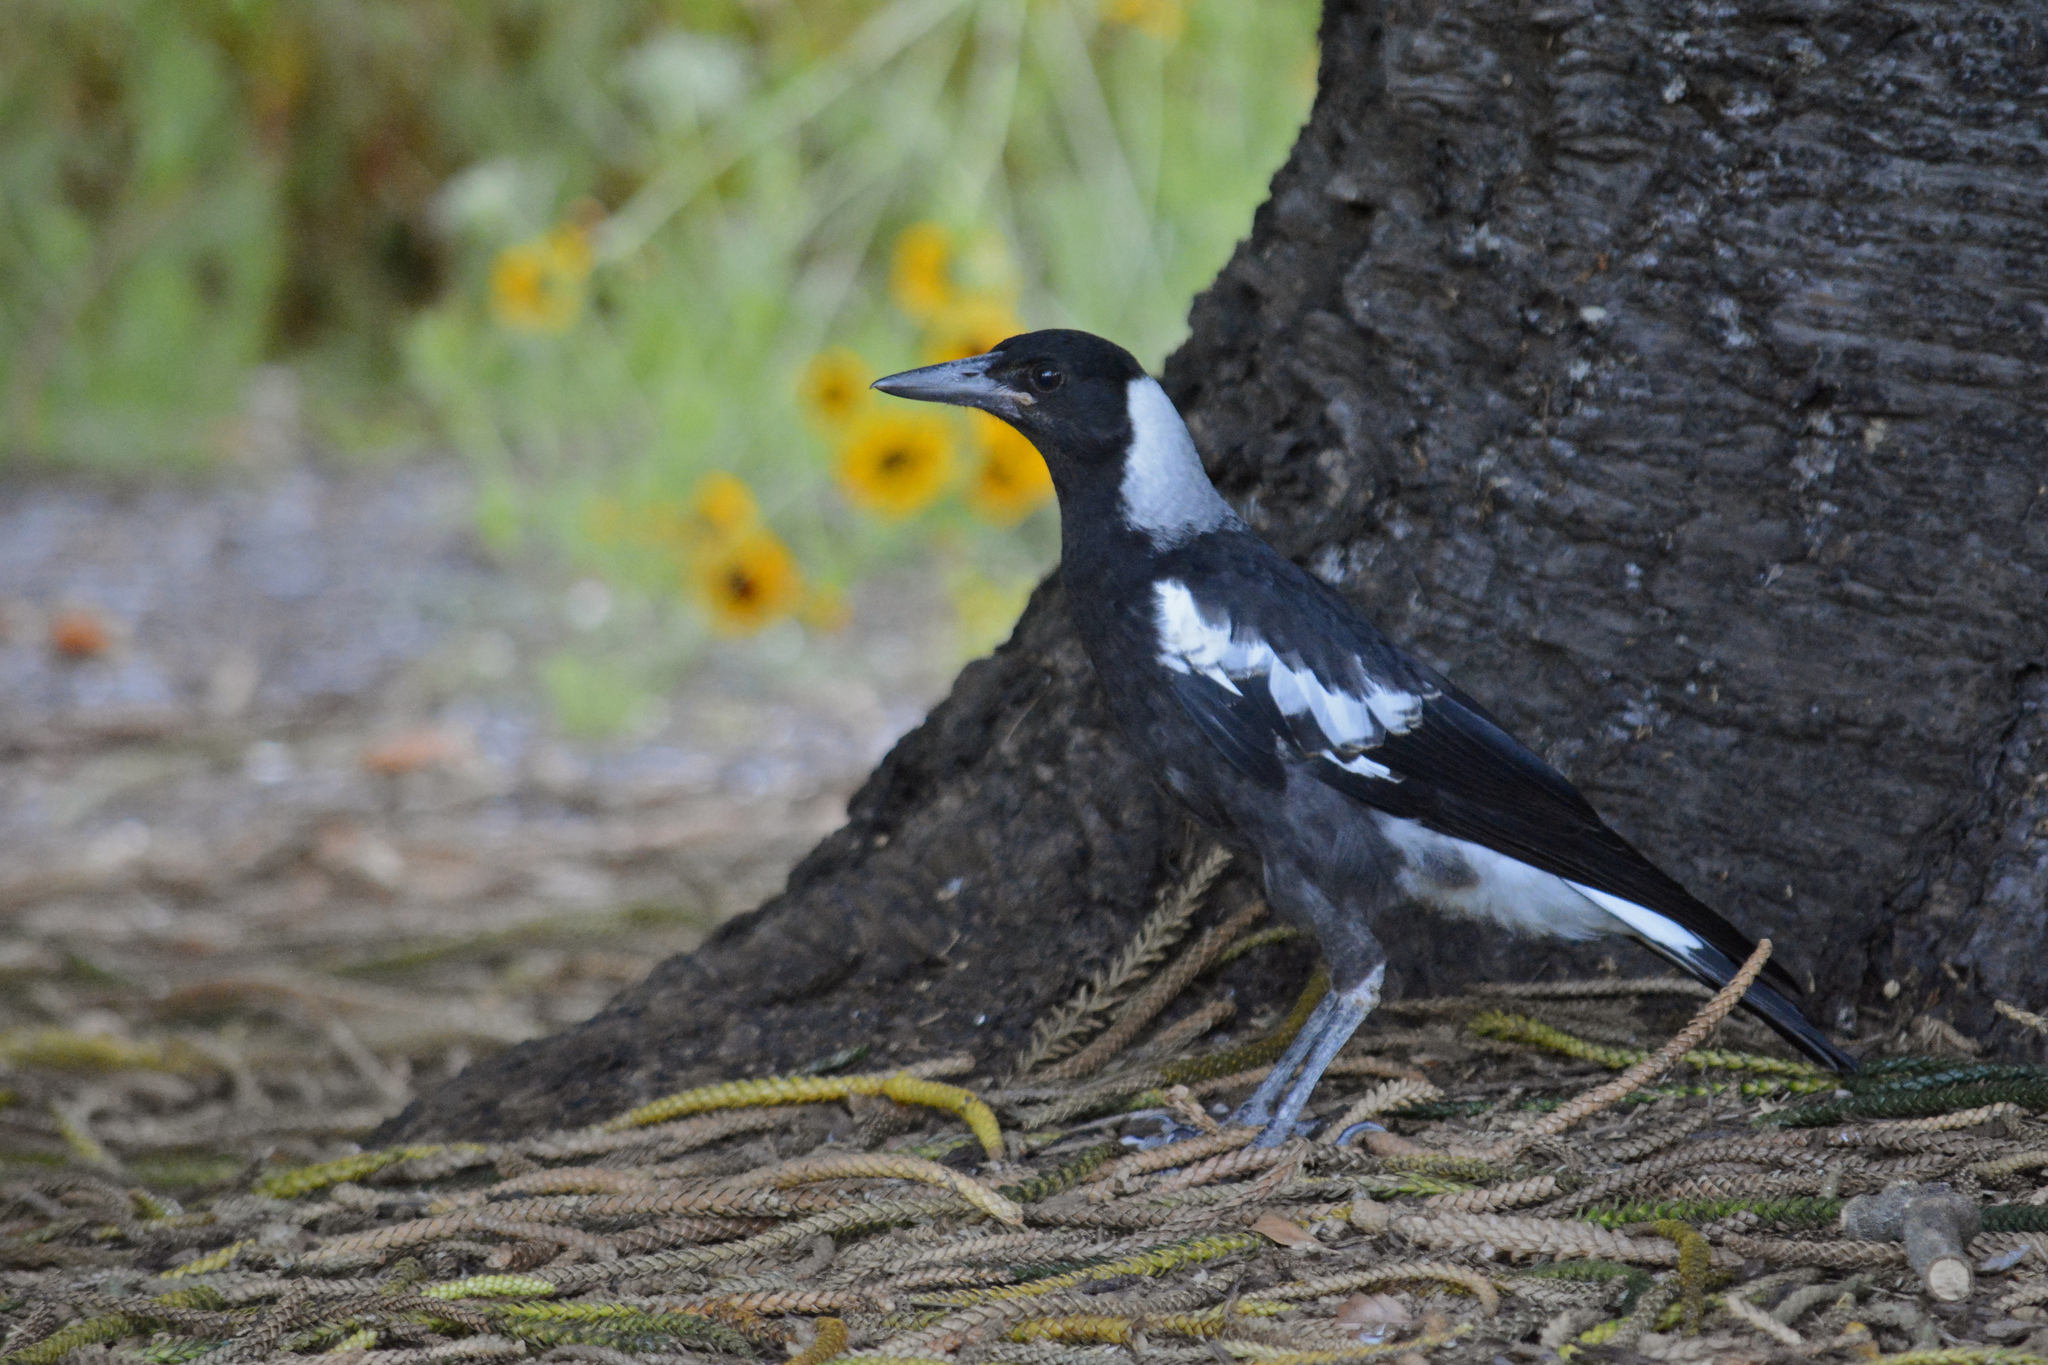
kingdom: Animalia
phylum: Chordata
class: Aves
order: Passeriformes
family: Cracticidae
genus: Gymnorhina
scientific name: Gymnorhina tibicen
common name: Australian magpie
